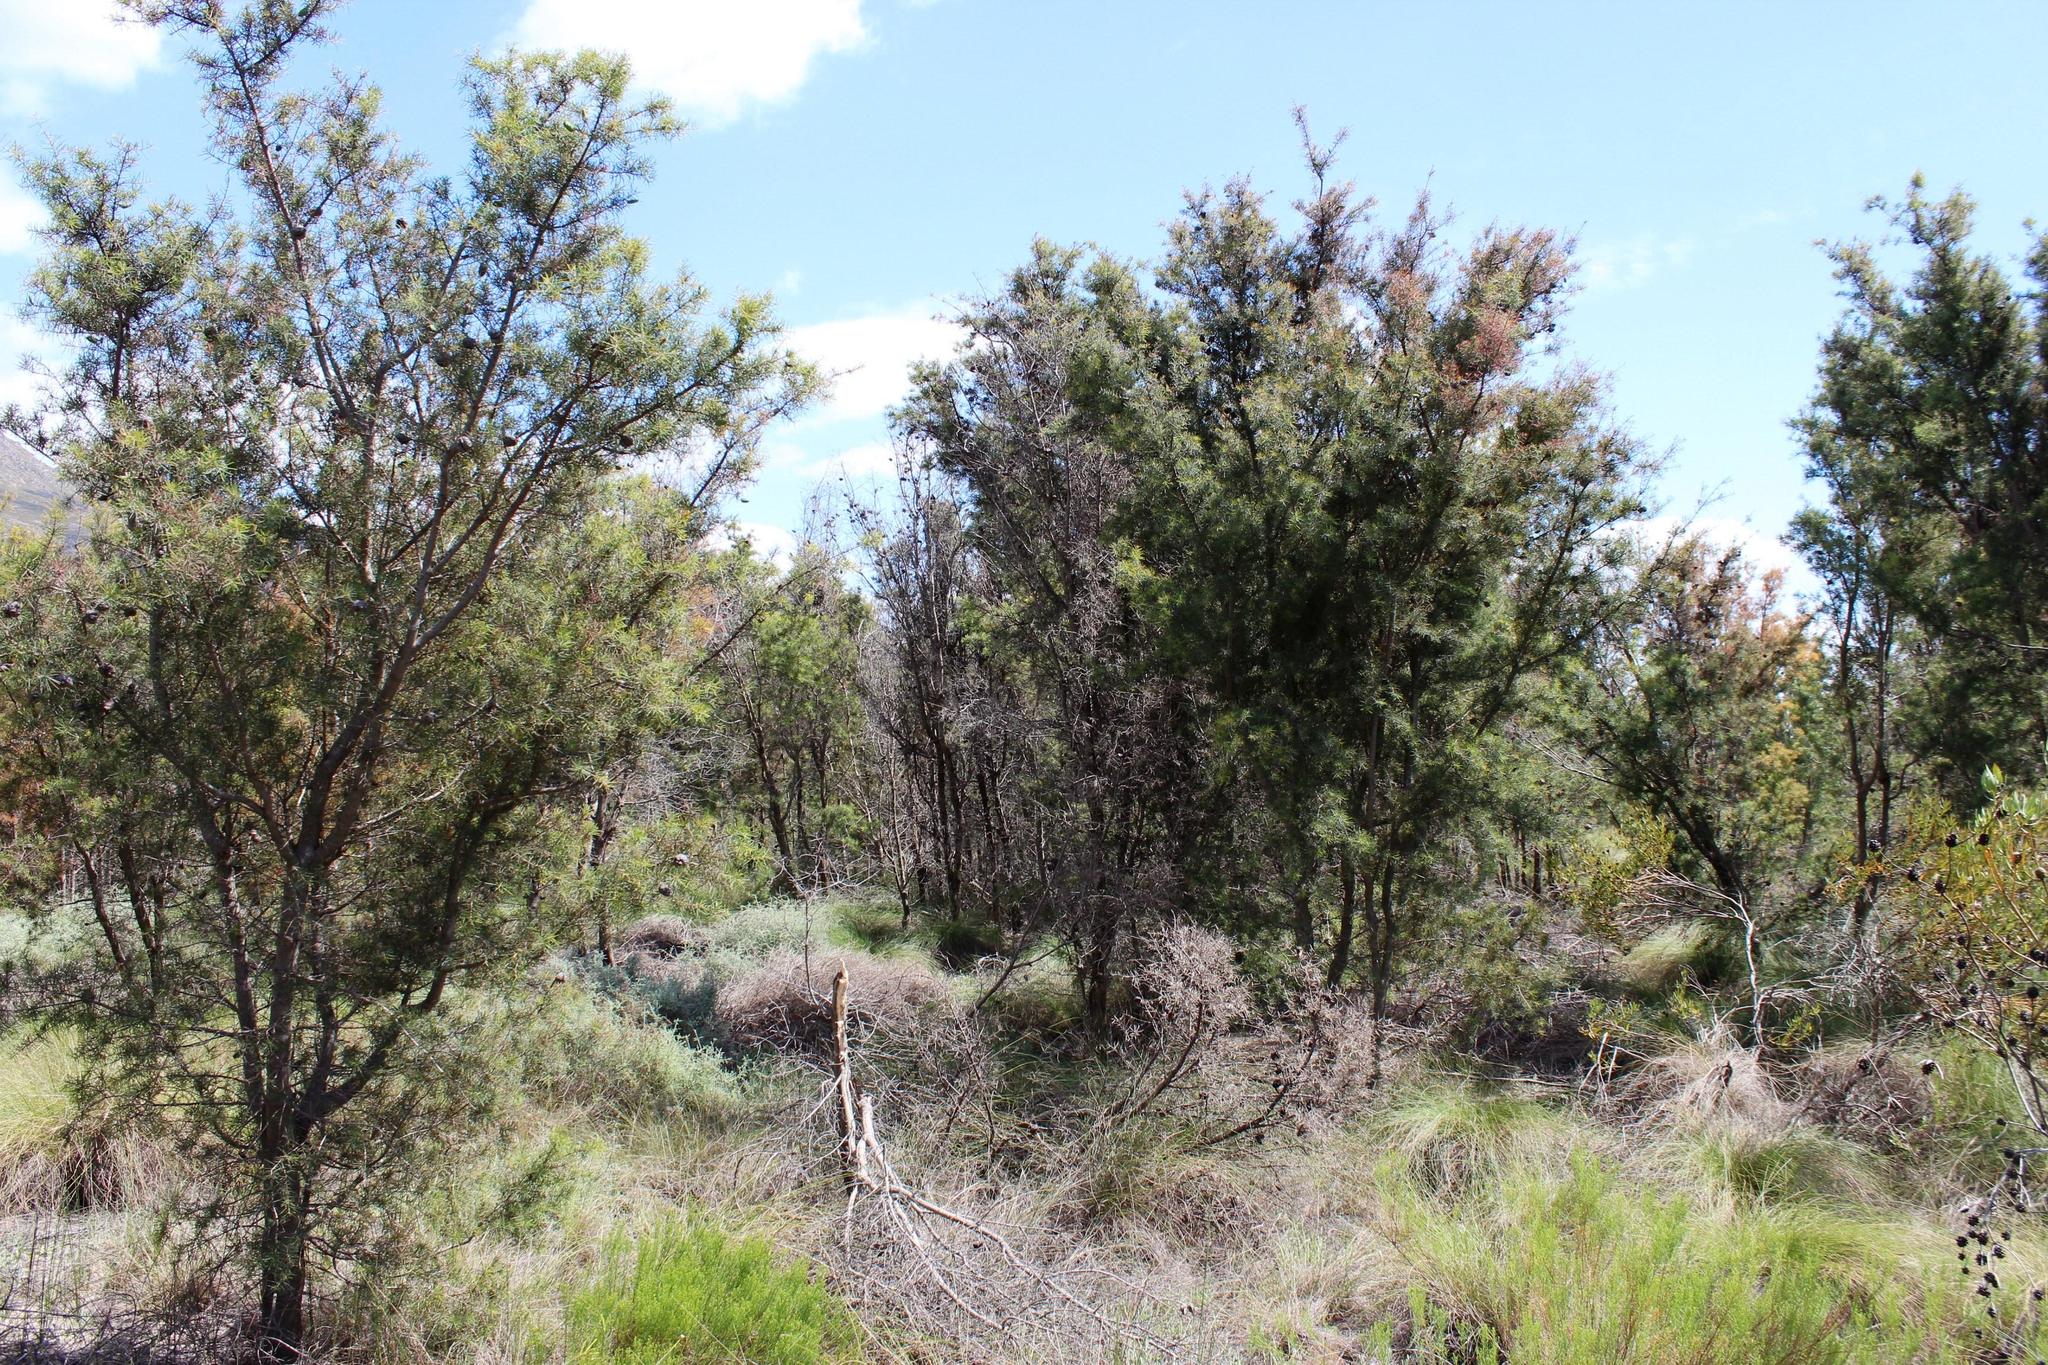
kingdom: Plantae
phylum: Tracheophyta
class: Magnoliopsida
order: Proteales
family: Proteaceae
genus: Hakea
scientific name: Hakea sericea
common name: Needle bush
